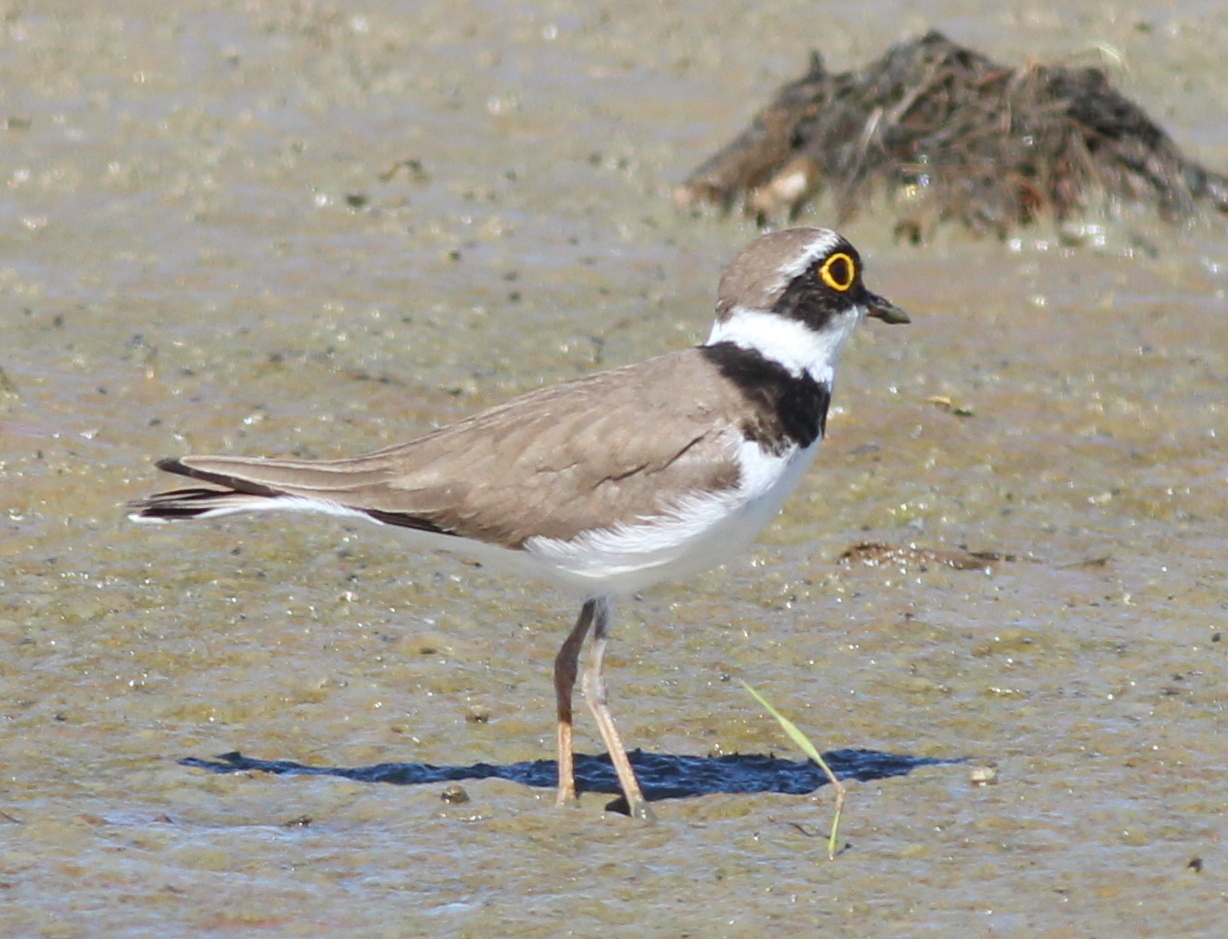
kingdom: Animalia
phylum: Chordata
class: Aves
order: Charadriiformes
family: Charadriidae
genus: Charadrius
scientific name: Charadrius dubius
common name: Little ringed plover
